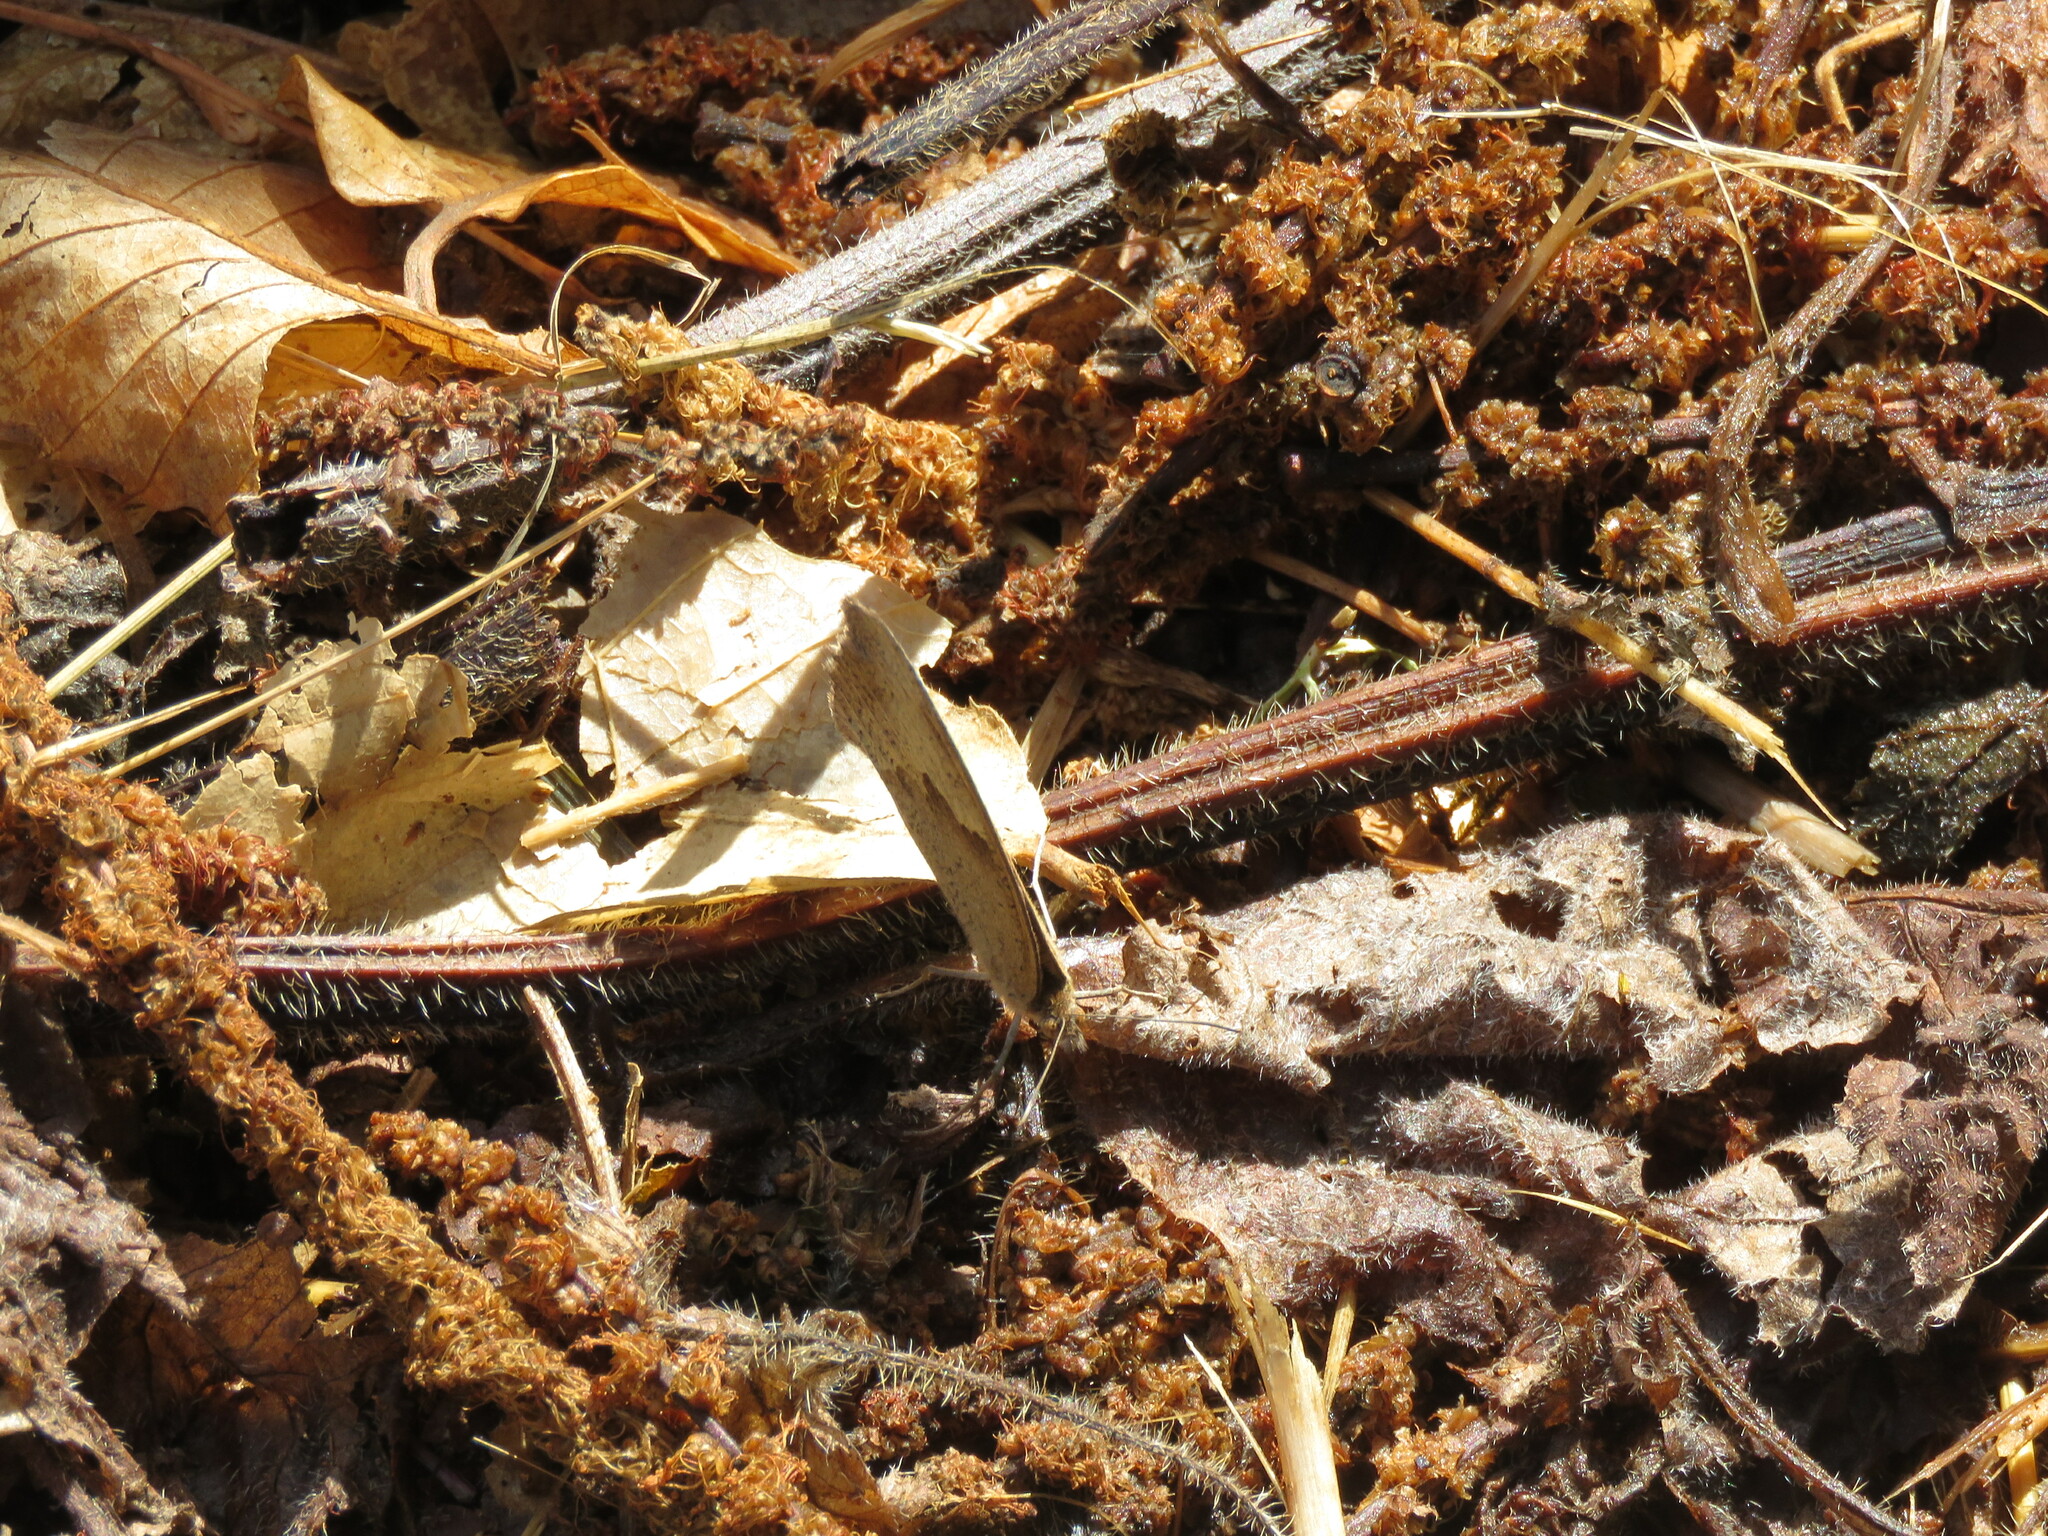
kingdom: Animalia
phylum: Arthropoda
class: Insecta
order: Lepidoptera
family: Nymphalidae
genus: Maniola
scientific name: Maniola jurtina
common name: Meadow brown
